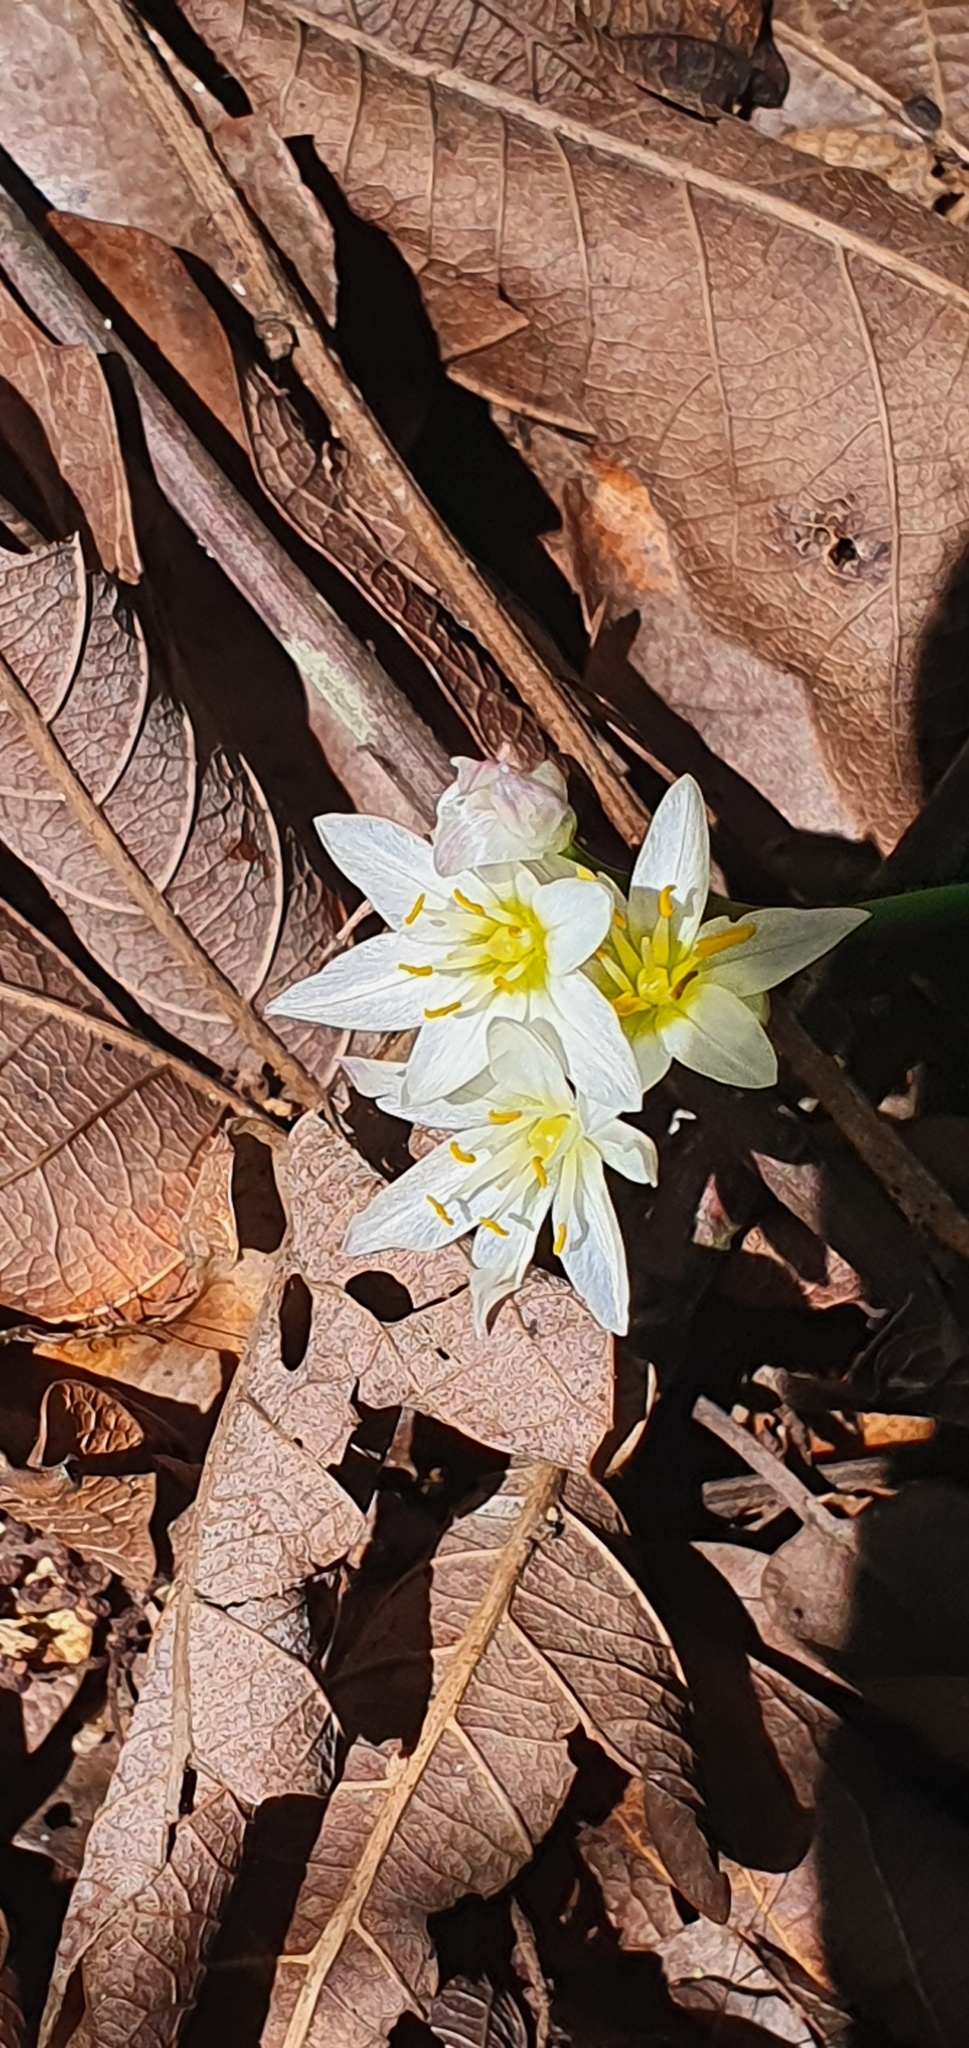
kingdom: Plantae
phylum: Tracheophyta
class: Liliopsida
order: Asparagales
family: Amaryllidaceae
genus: Nothoscordum
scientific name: Nothoscordum bivalve
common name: Crow-poison
